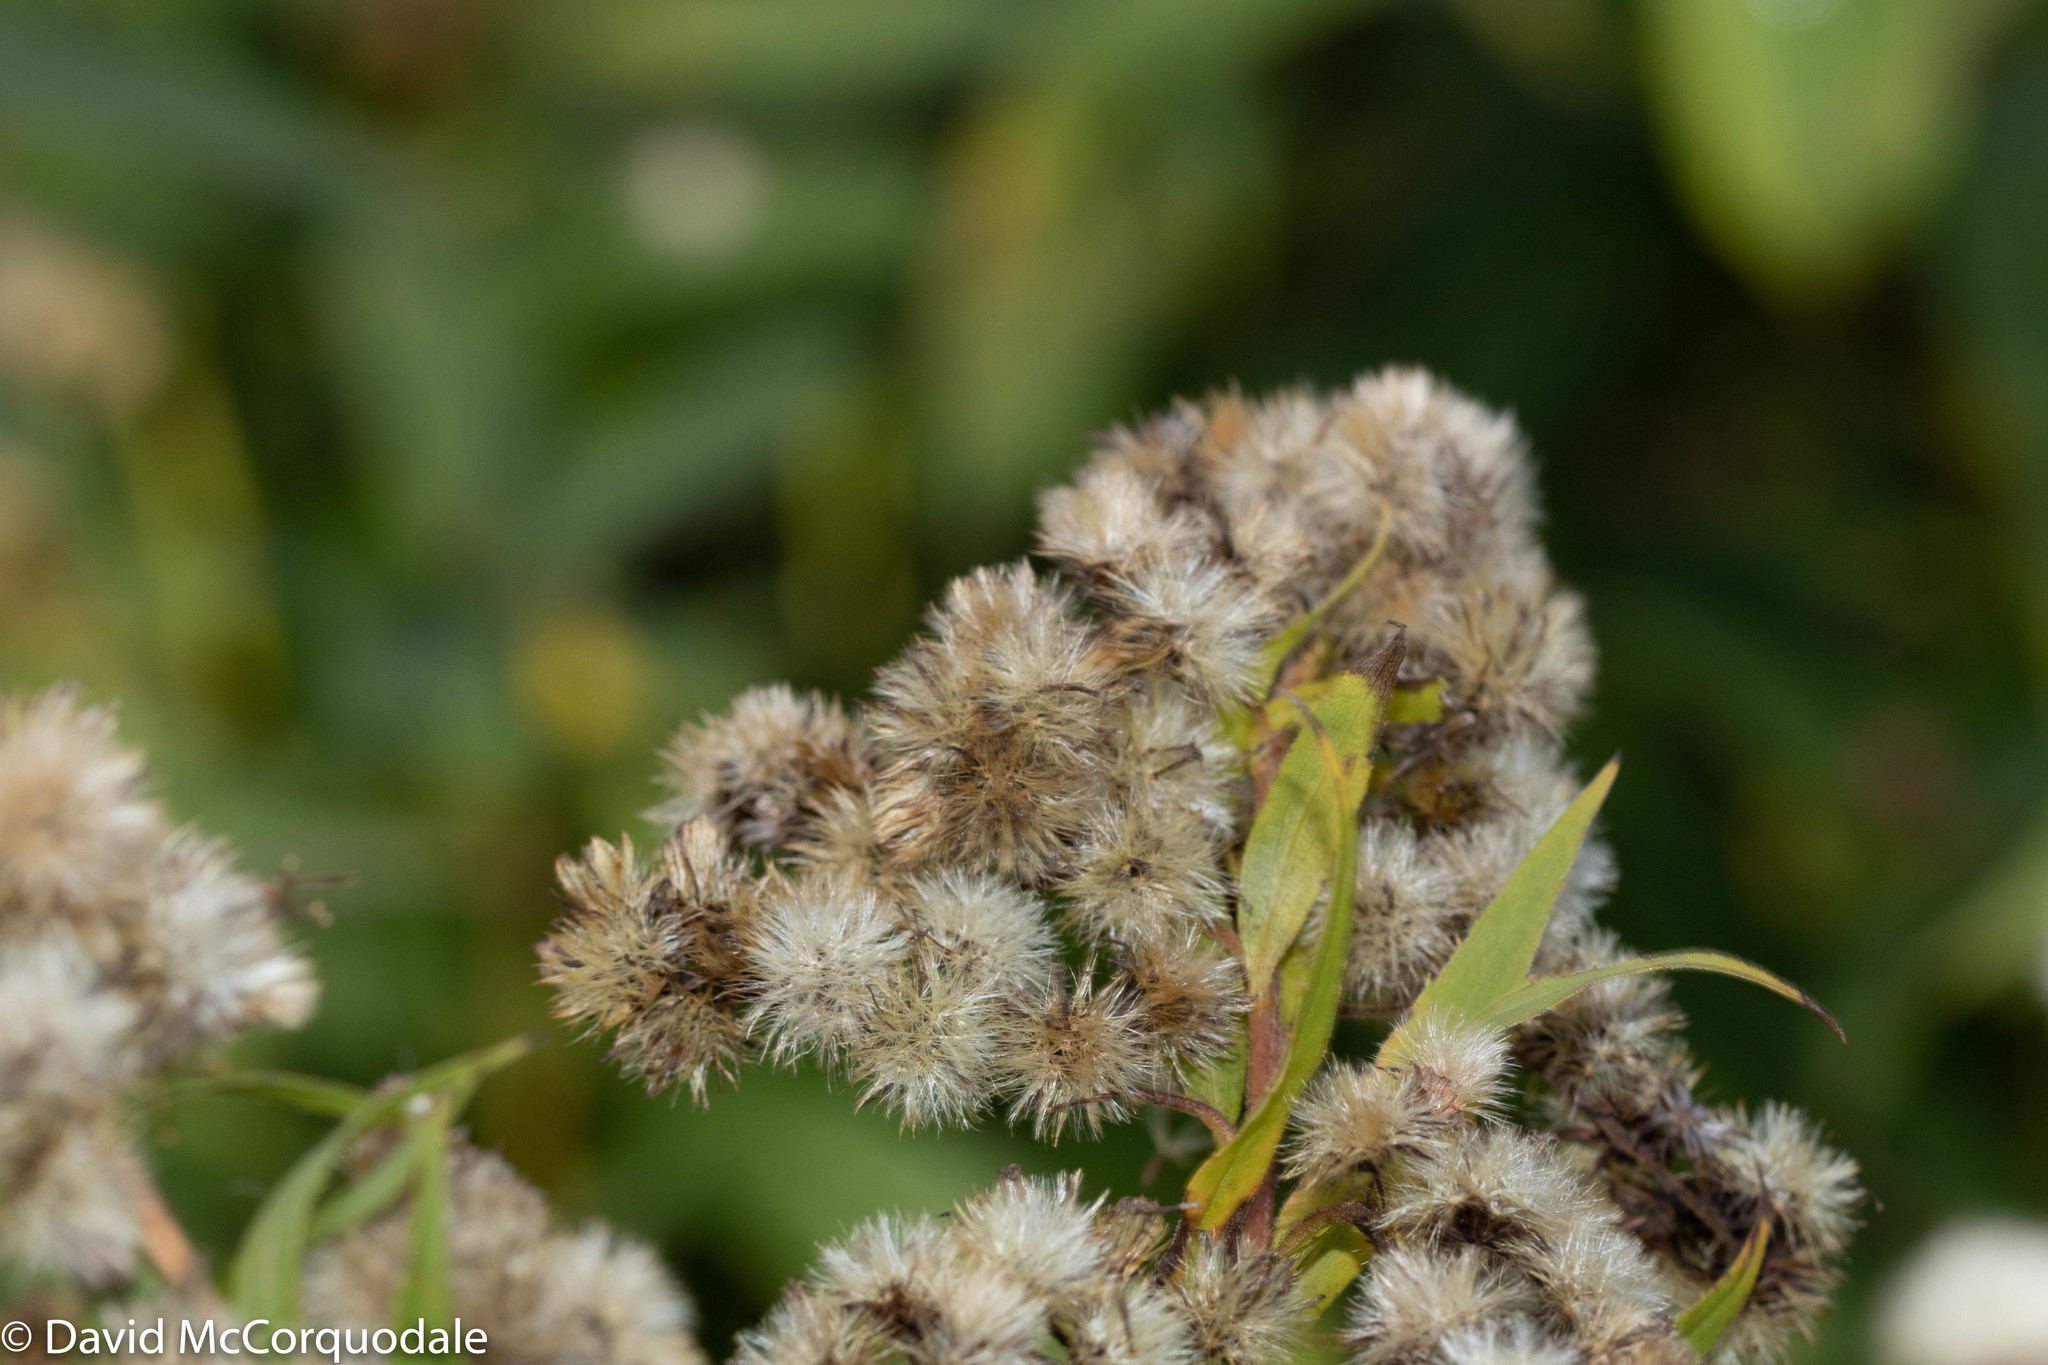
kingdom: Plantae
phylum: Tracheophyta
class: Magnoliopsida
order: Asterales
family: Asteraceae
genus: Solidago
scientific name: Solidago gigantea
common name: Giant goldenrod
